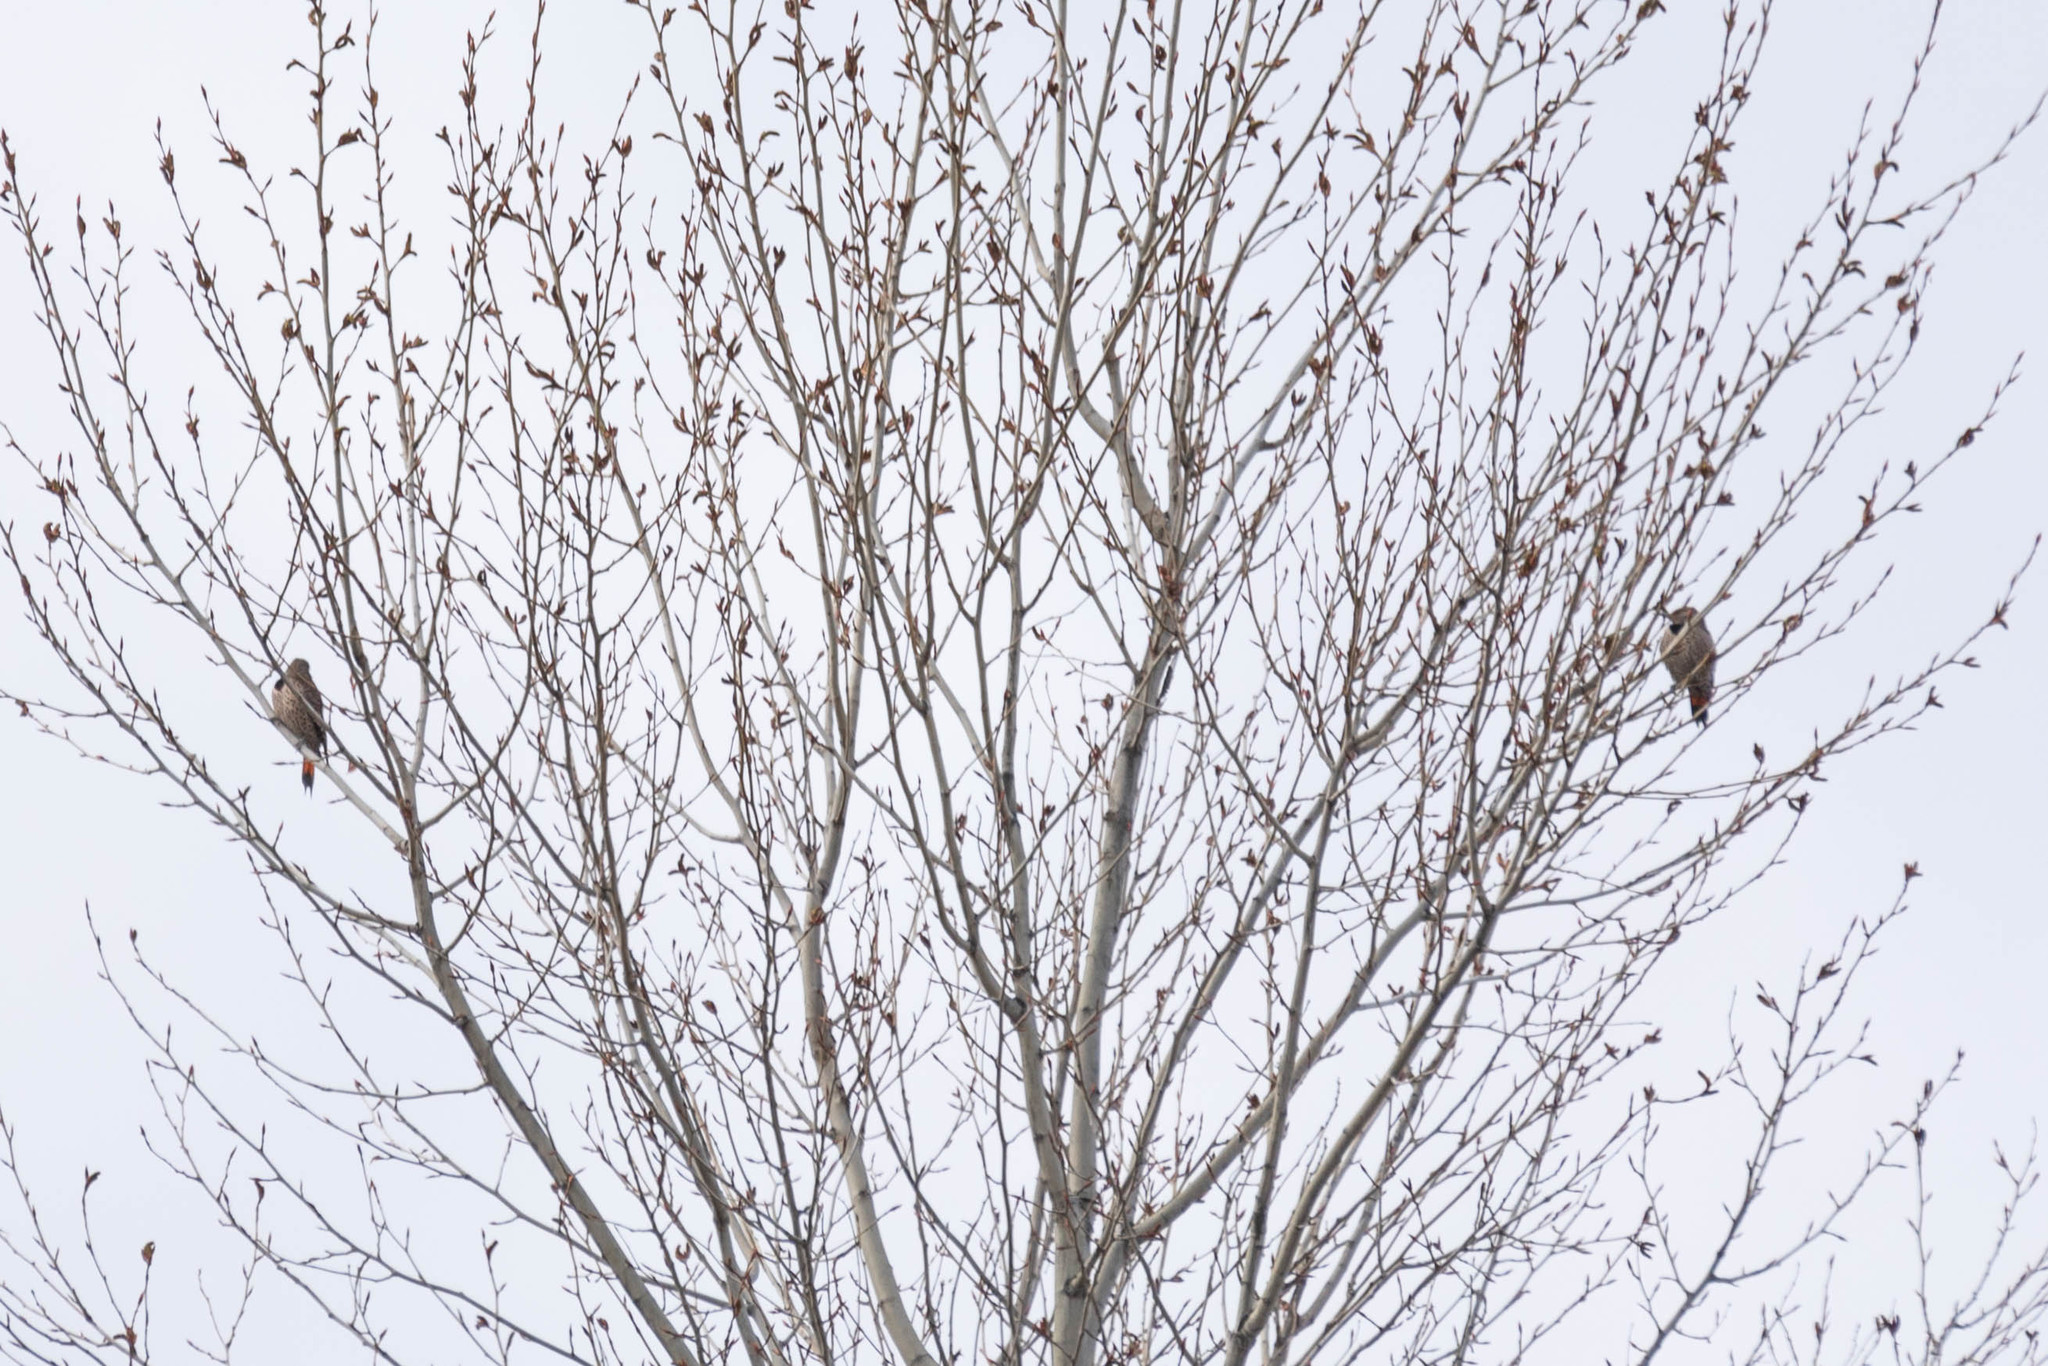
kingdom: Animalia
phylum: Chordata
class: Aves
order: Piciformes
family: Picidae
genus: Colaptes
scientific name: Colaptes auratus
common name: Northern flicker
